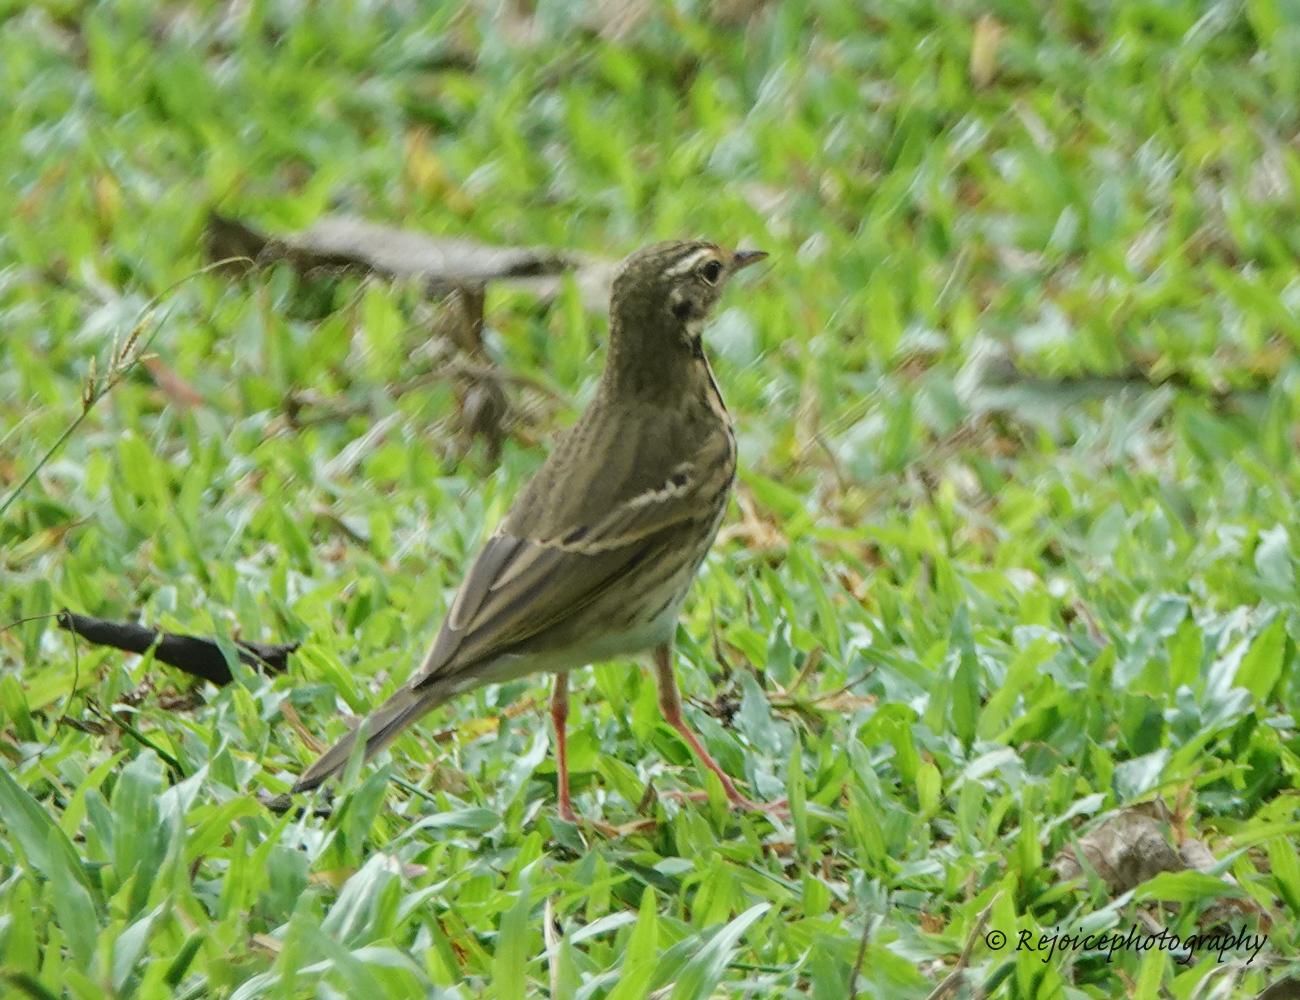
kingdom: Animalia
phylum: Chordata
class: Aves
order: Passeriformes
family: Motacillidae
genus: Anthus
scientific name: Anthus hodgsoni
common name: Olive-backed pipit
